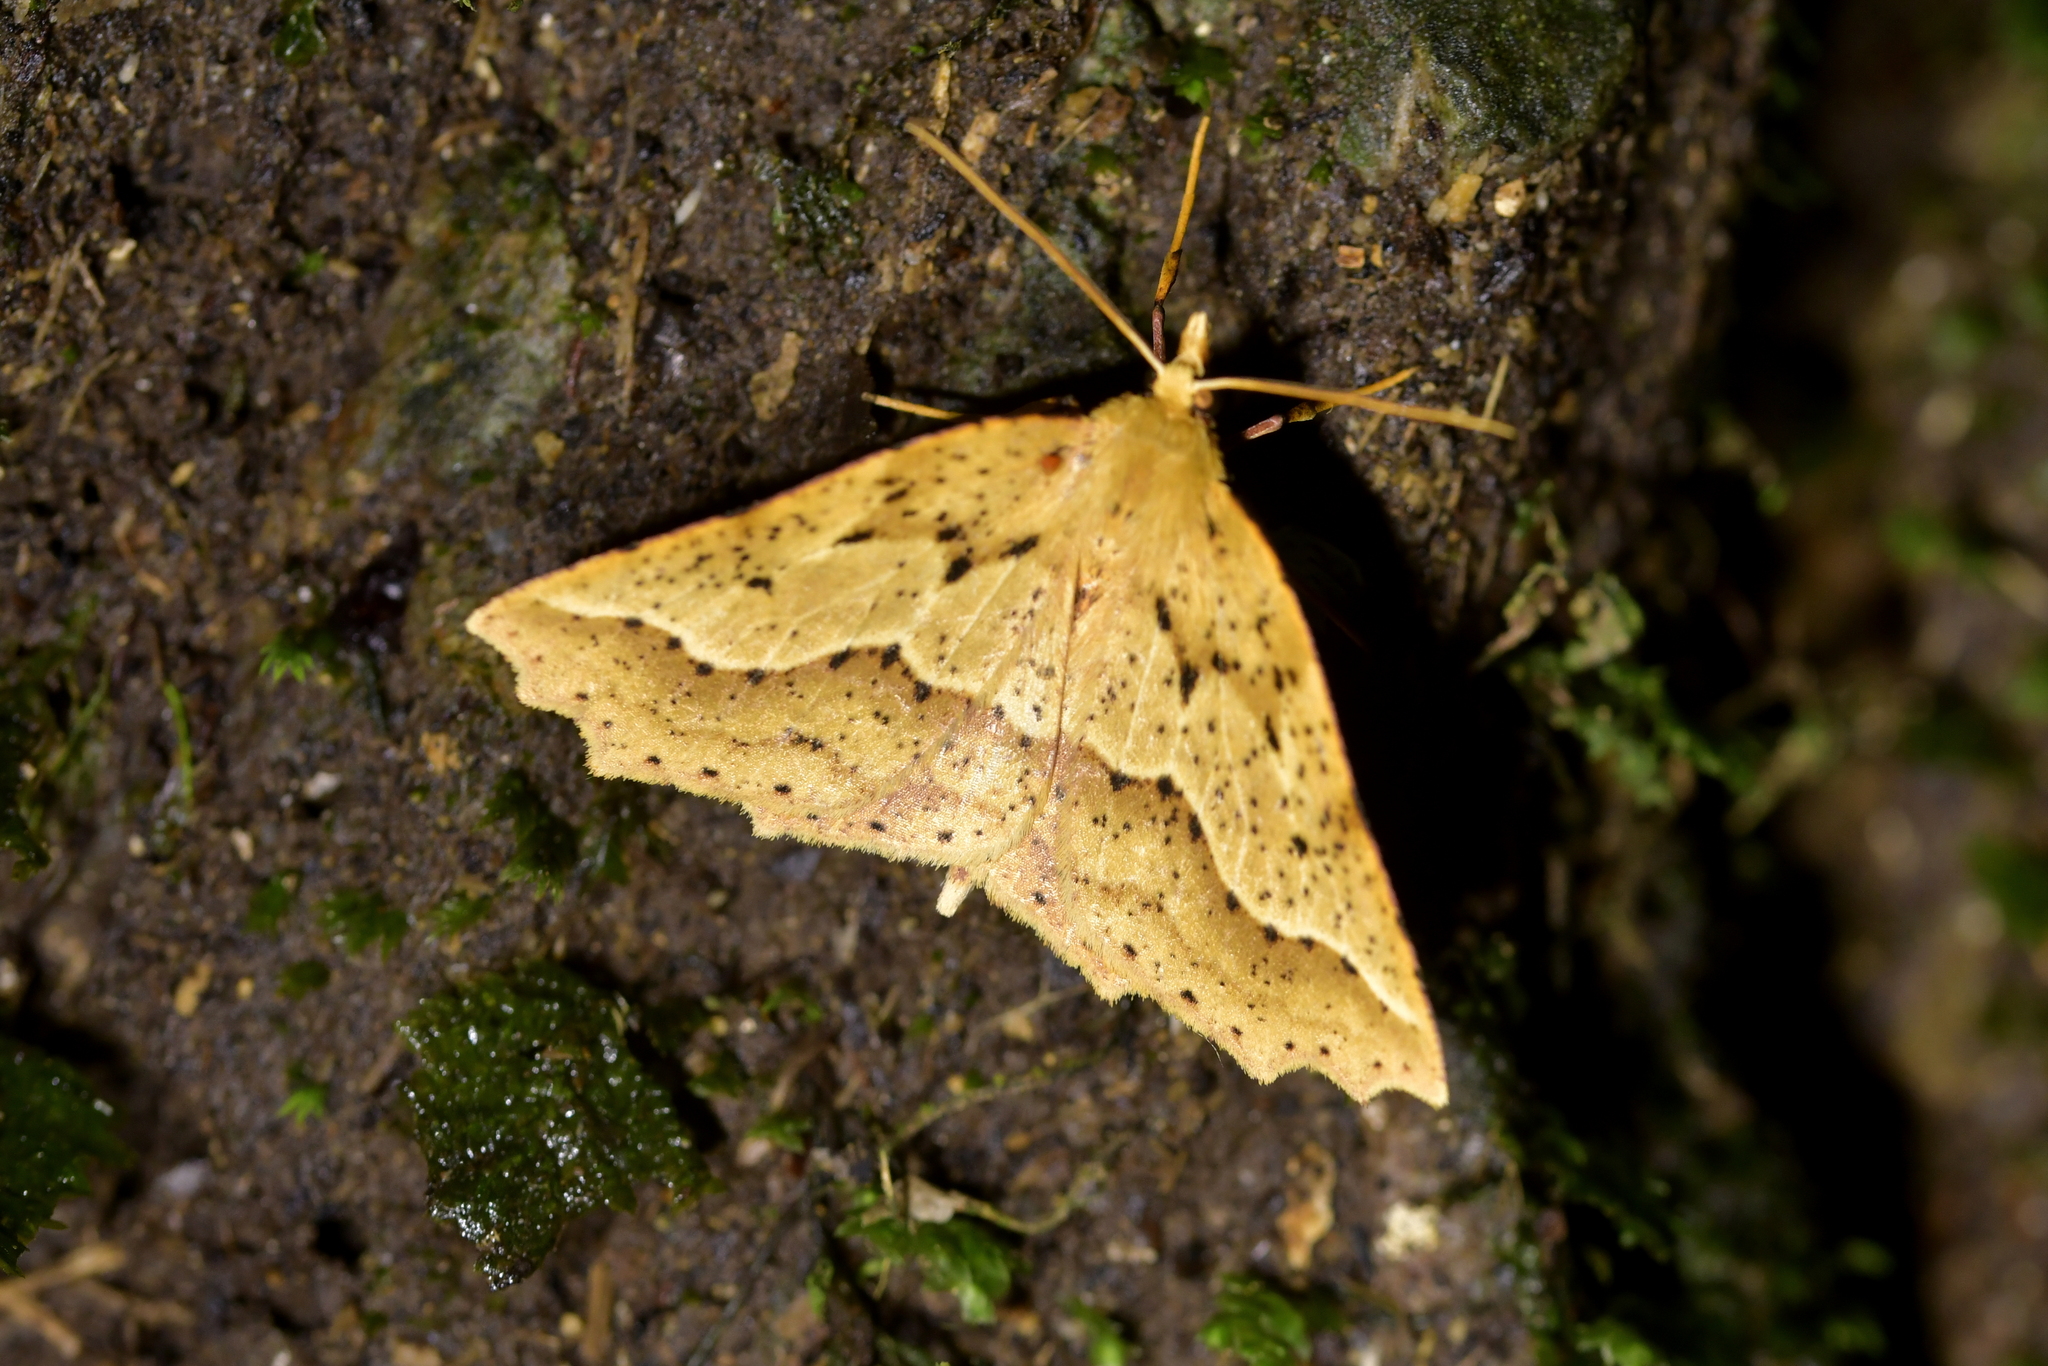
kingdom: Animalia
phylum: Arthropoda
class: Insecta
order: Lepidoptera
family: Geometridae
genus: Ischalis
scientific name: Ischalis variabilis
